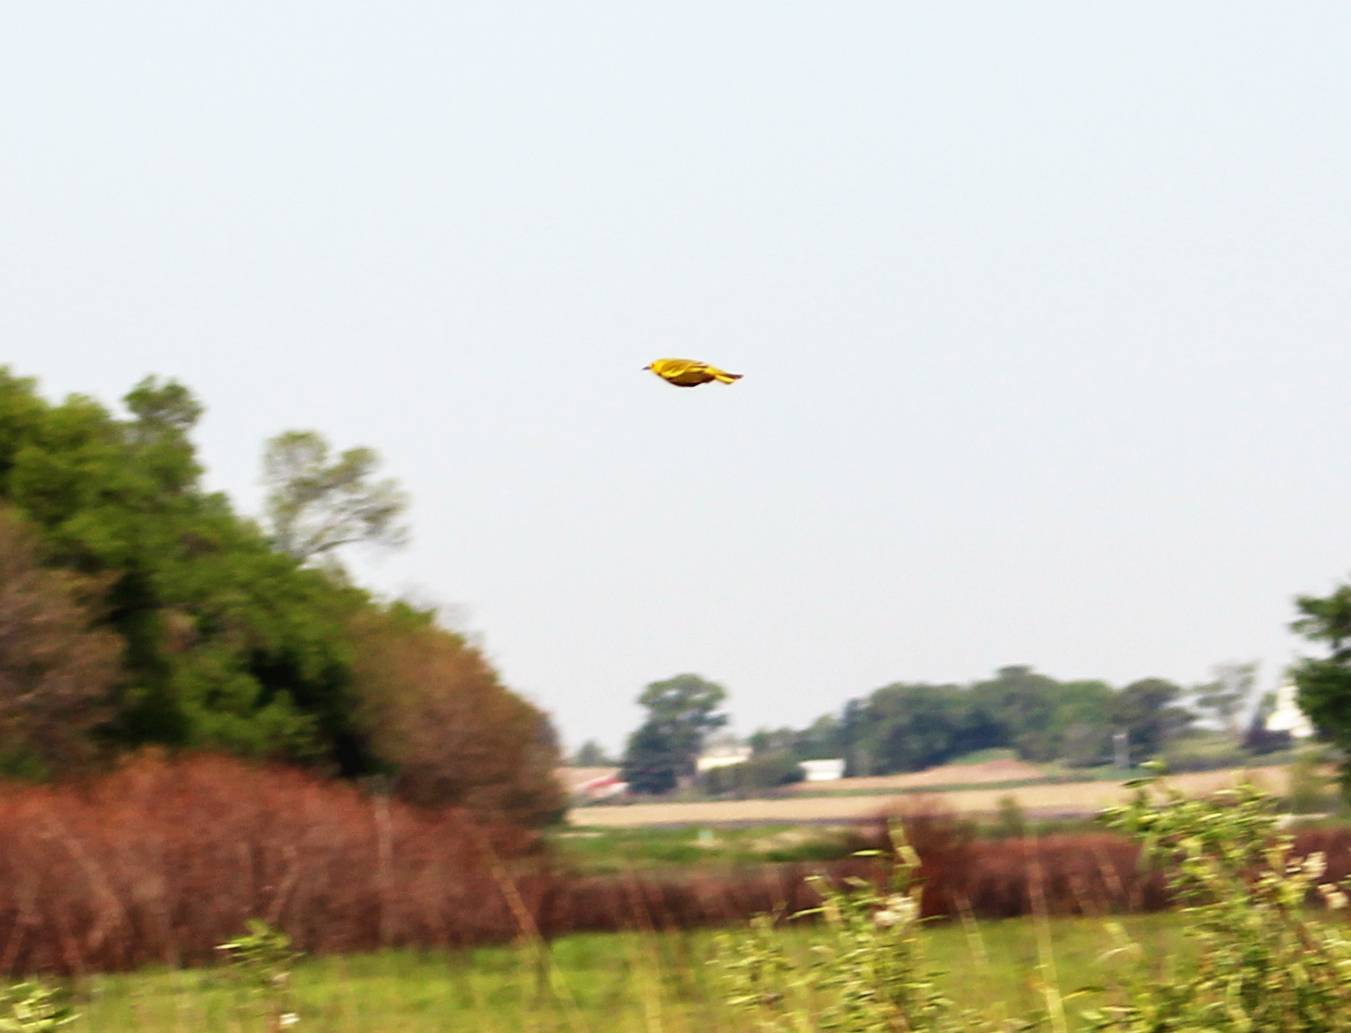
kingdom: Animalia
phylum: Chordata
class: Aves
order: Passeriformes
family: Parulidae
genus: Setophaga
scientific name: Setophaga petechia
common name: Yellow warbler
